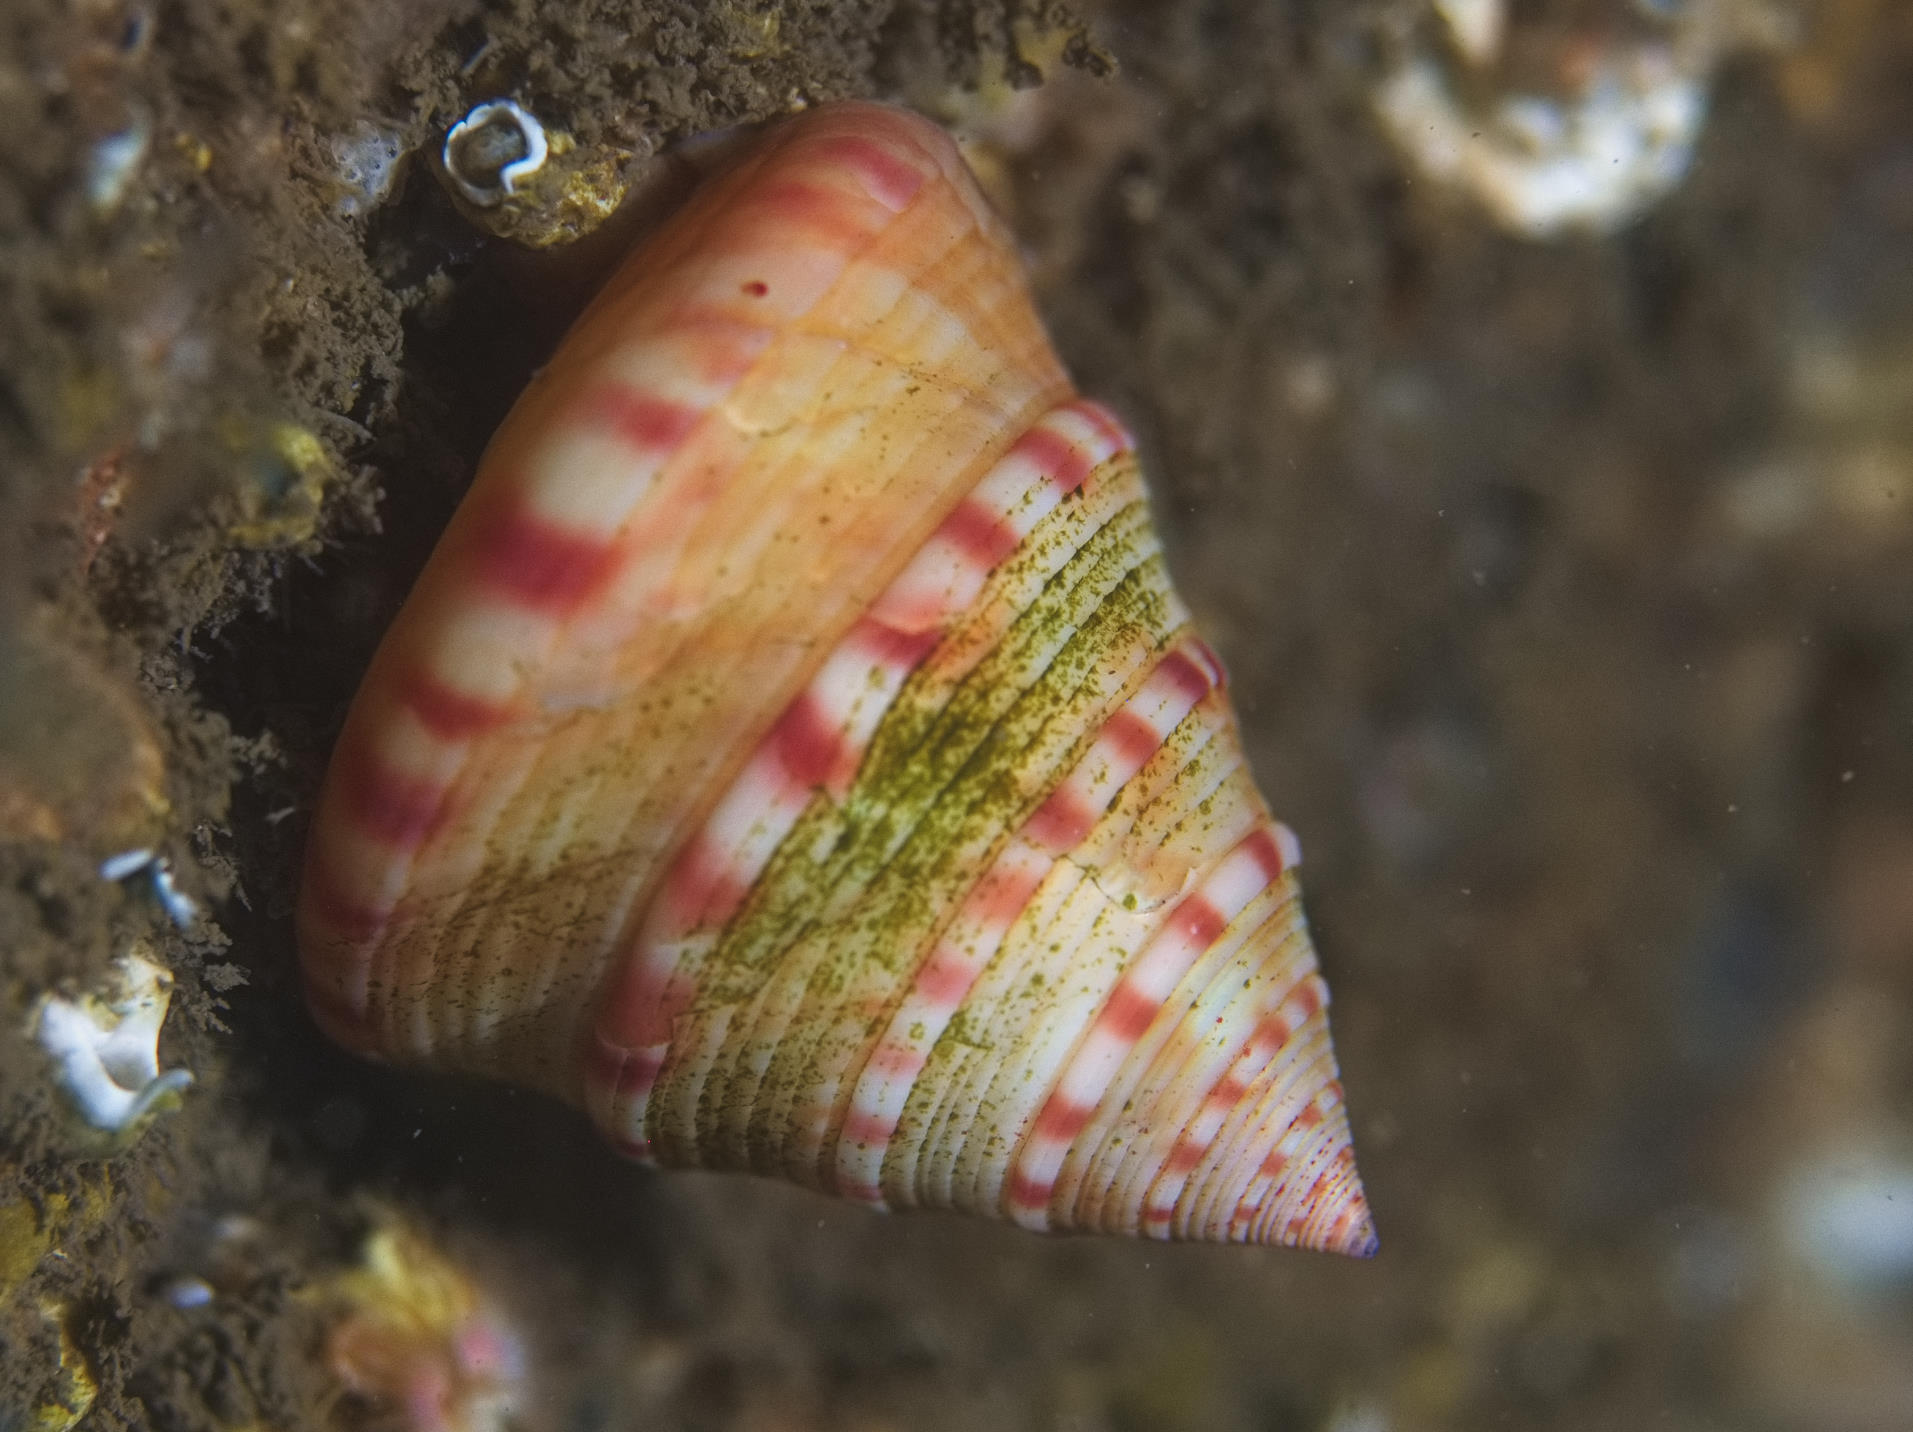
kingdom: Animalia
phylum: Mollusca
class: Gastropoda
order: Trochida
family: Calliostomatidae
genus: Calliostoma
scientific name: Calliostoma zizyphinum
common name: Painted top shell
